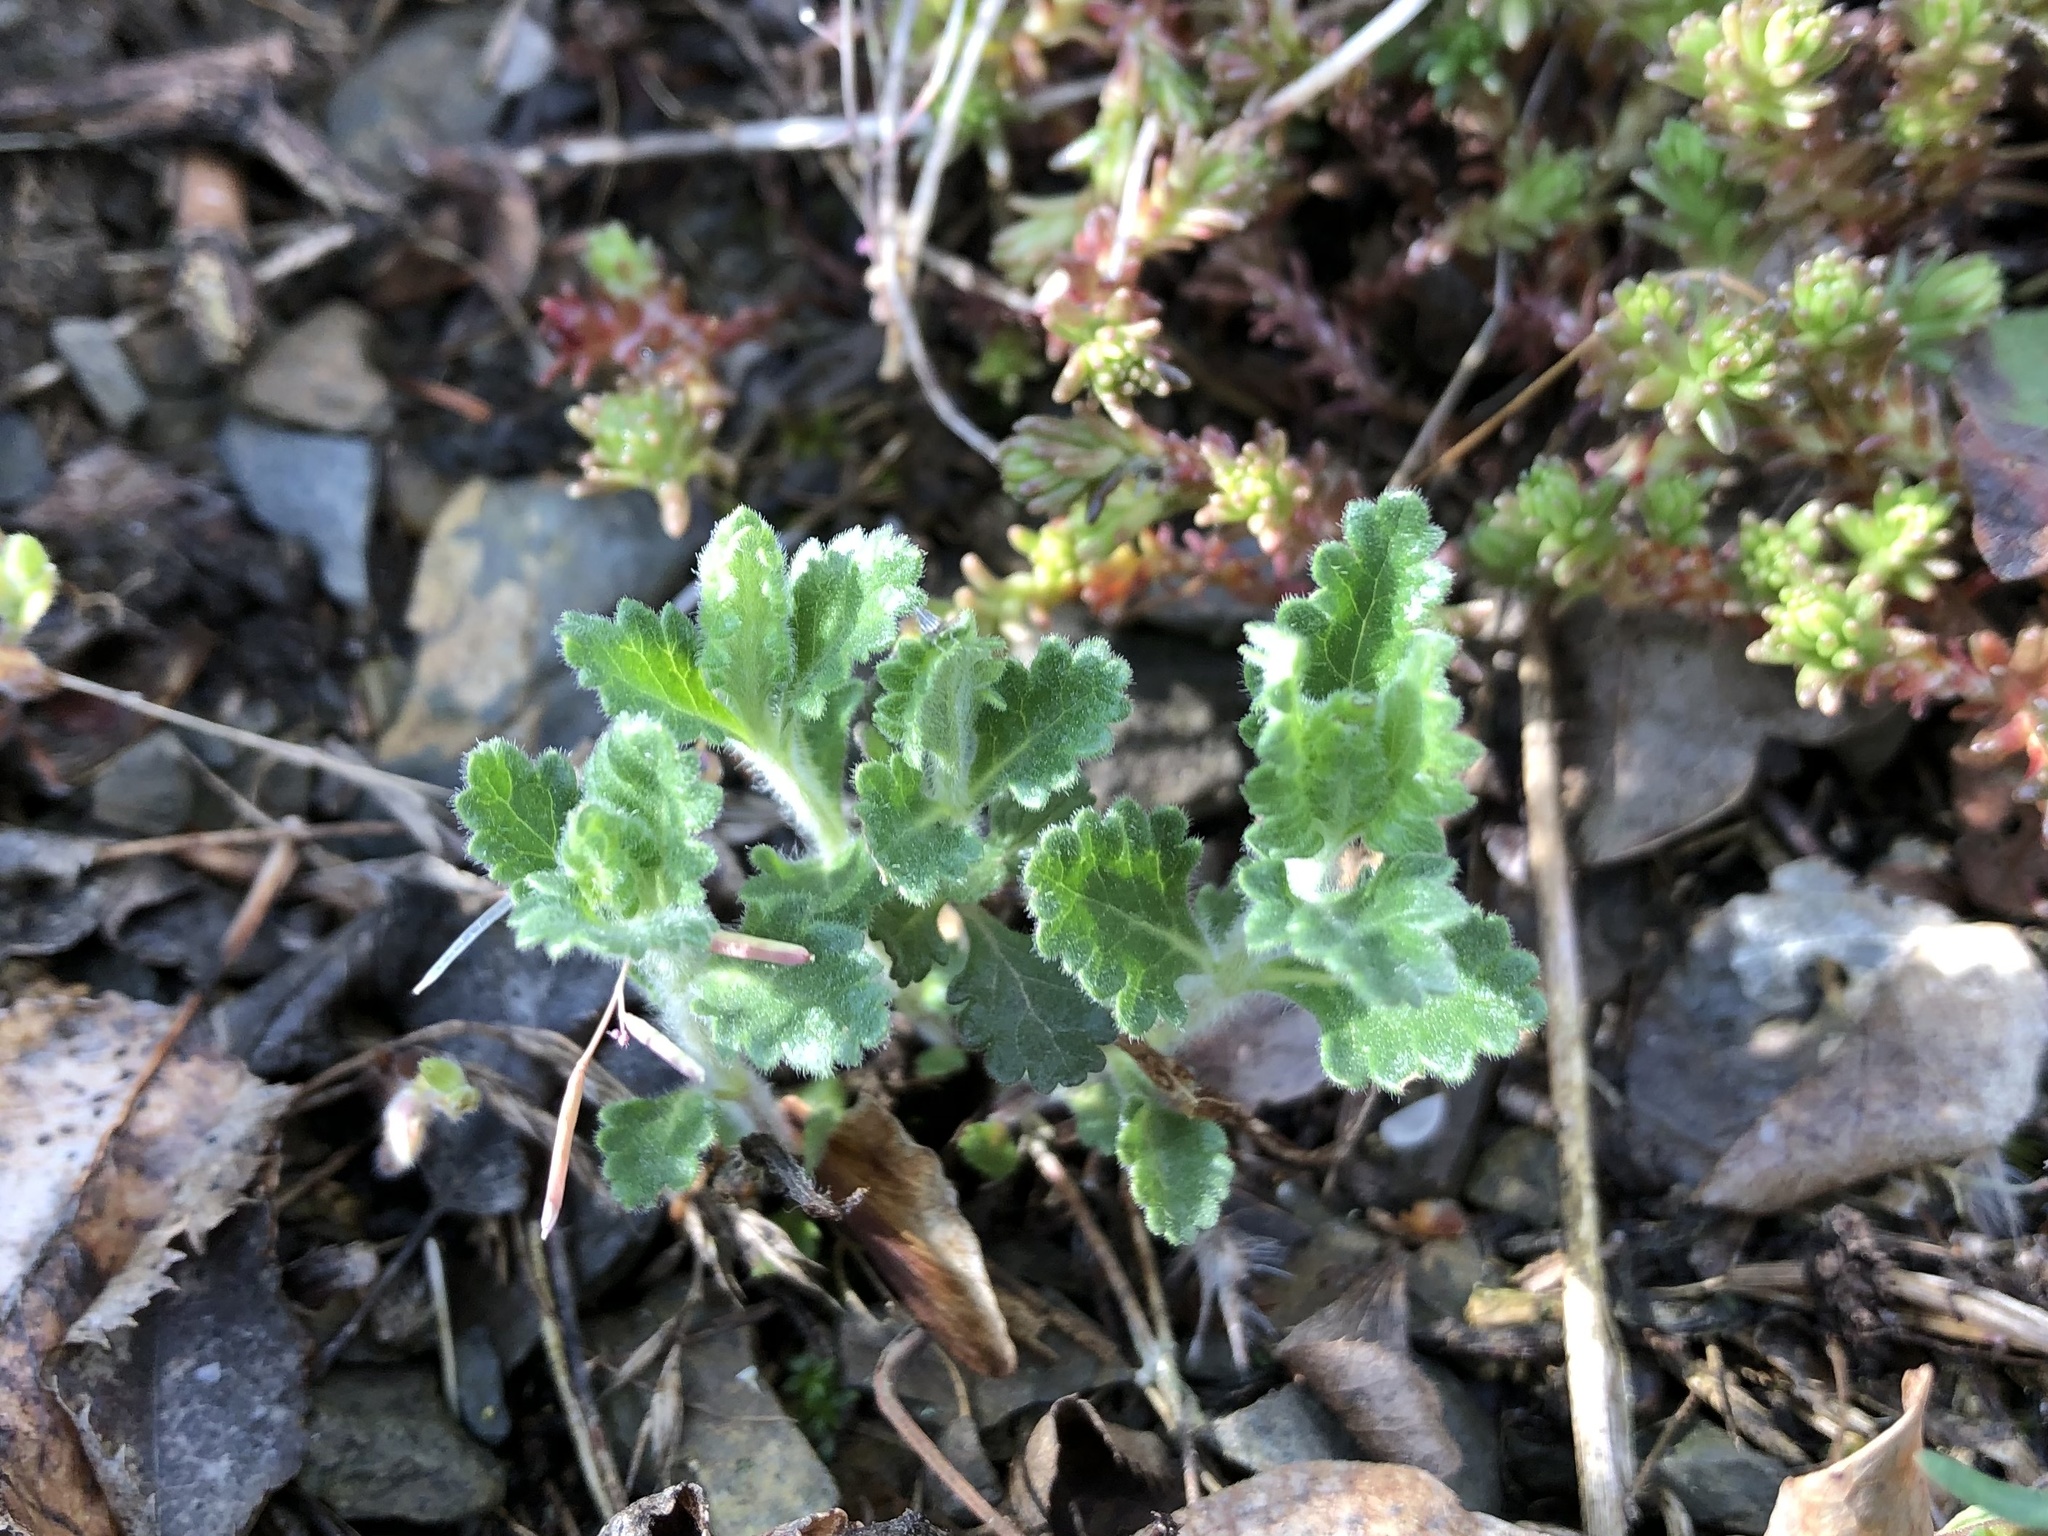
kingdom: Plantae
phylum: Tracheophyta
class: Magnoliopsida
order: Lamiales
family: Lamiaceae
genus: Teucrium
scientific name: Teucrium chamaedrys
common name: Wall germander
